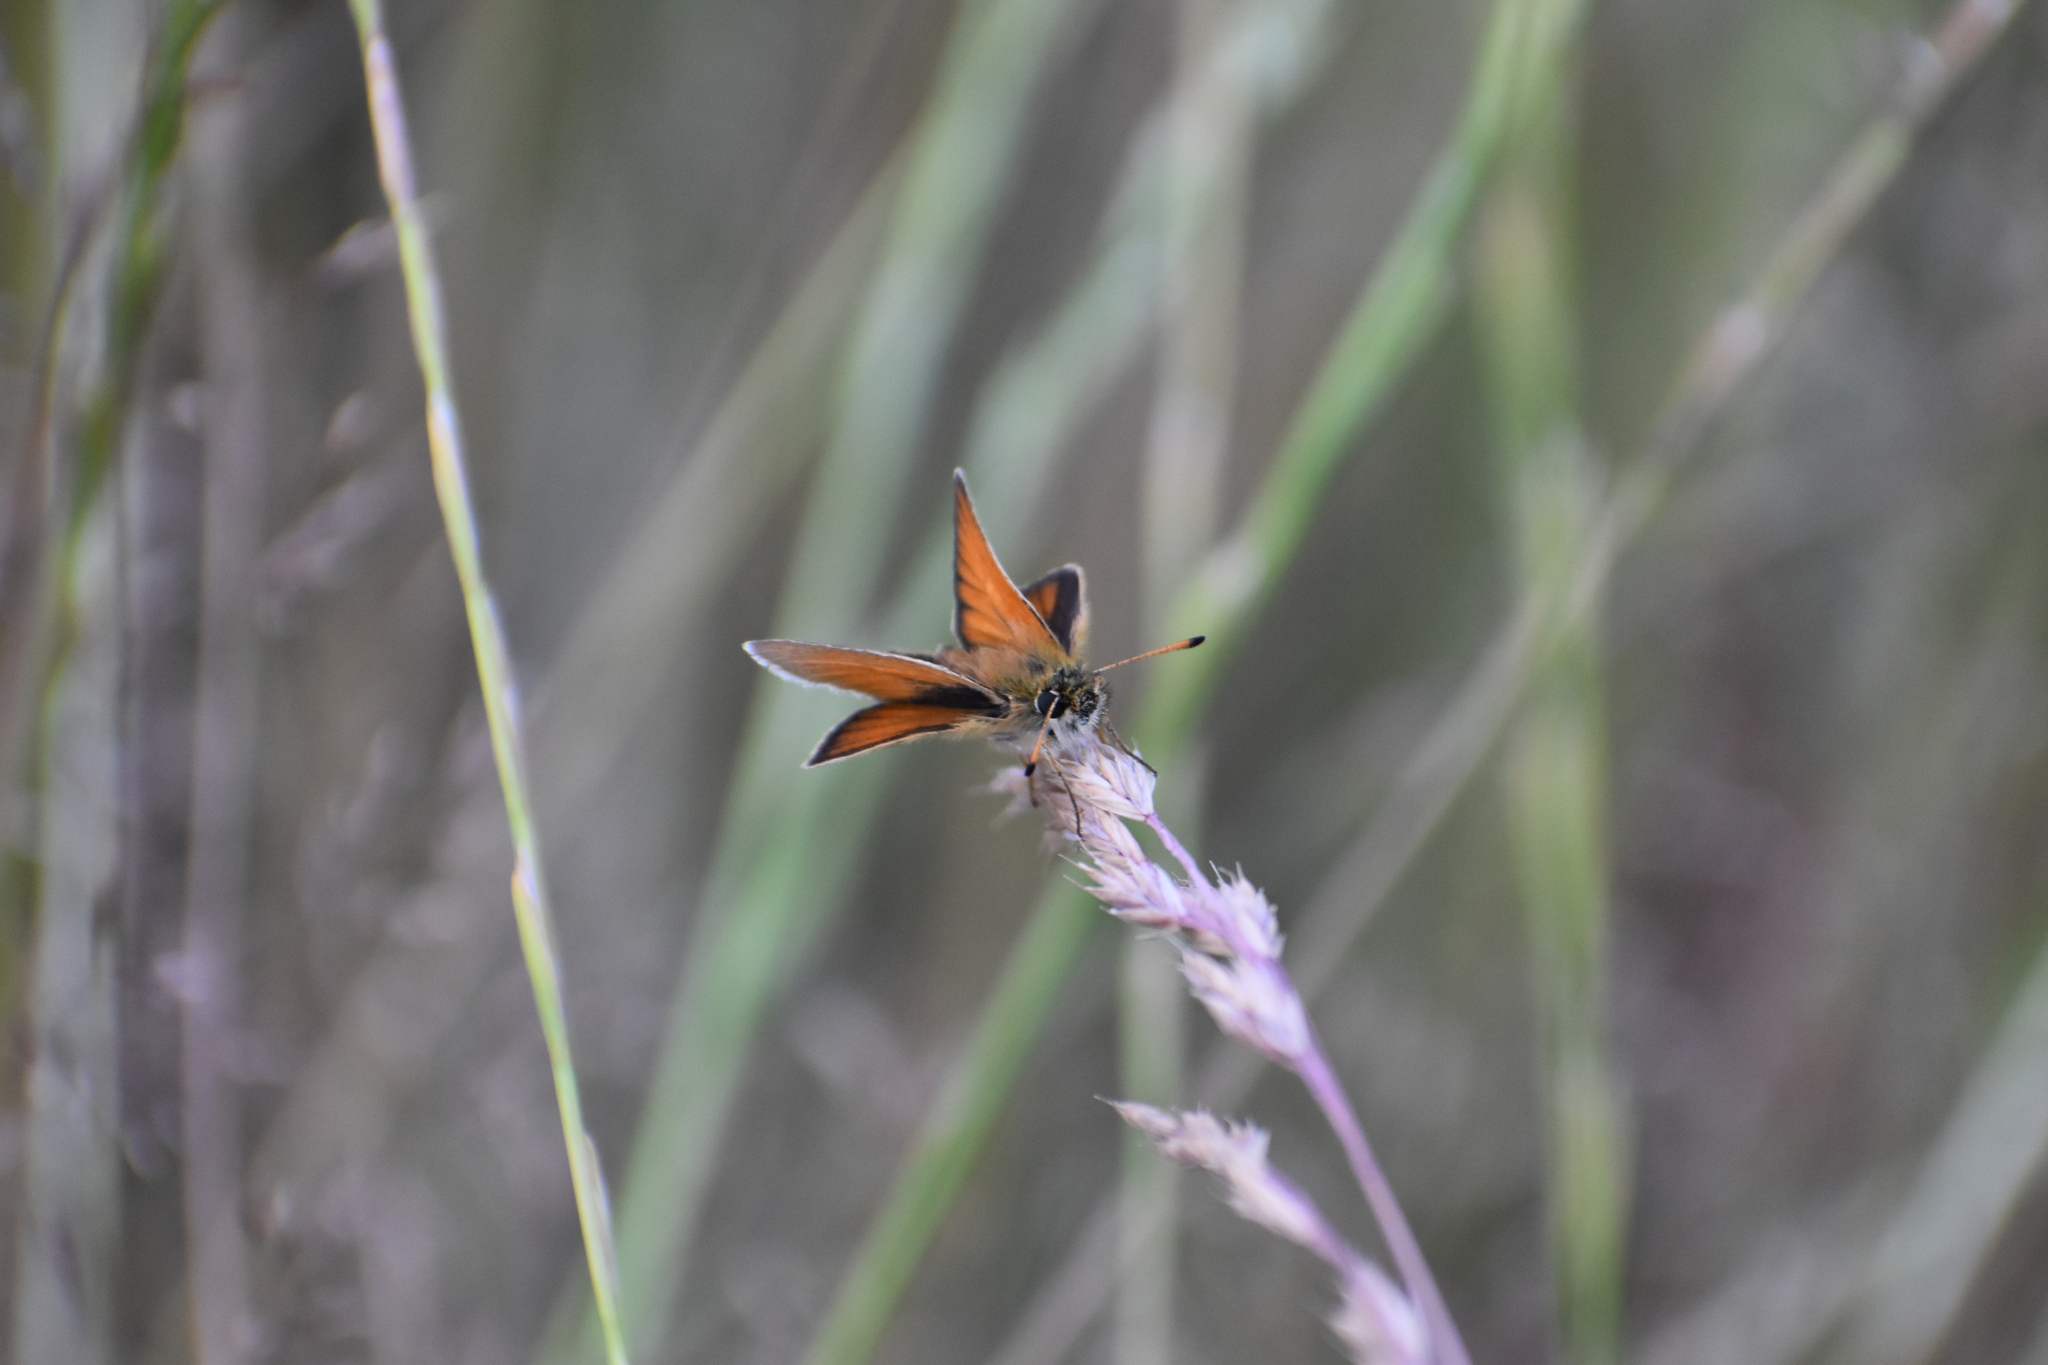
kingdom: Animalia
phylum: Arthropoda
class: Insecta
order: Lepidoptera
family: Hesperiidae
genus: Thymelicus
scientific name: Thymelicus lineola
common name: Essex skipper
